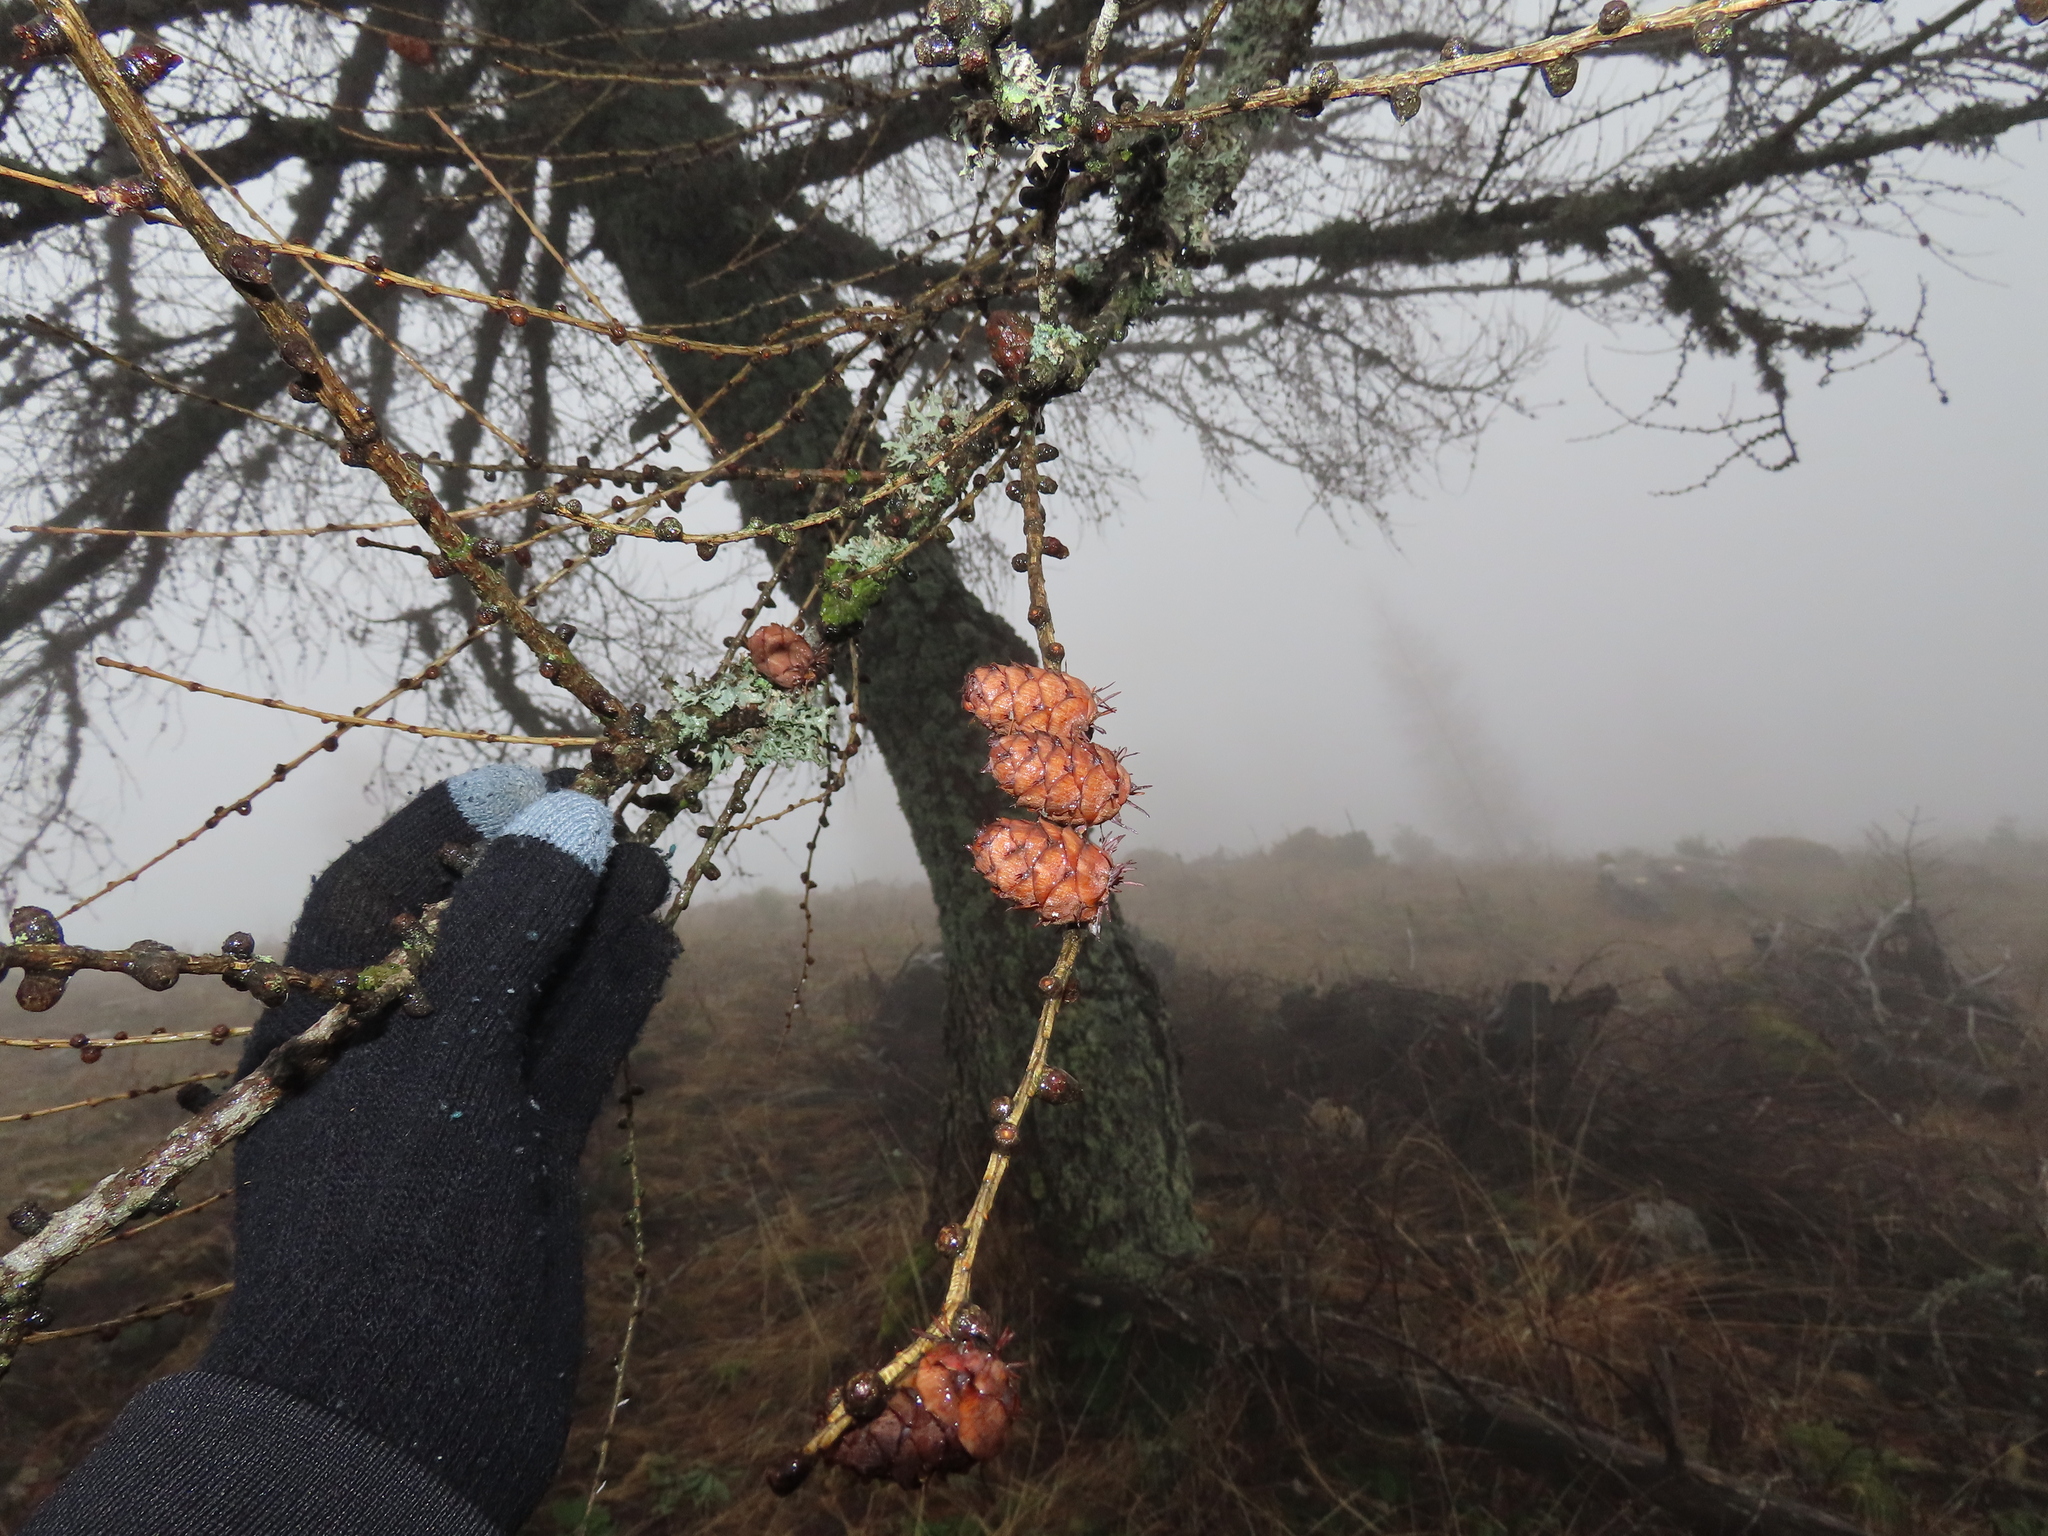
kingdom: Plantae
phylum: Tracheophyta
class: Pinopsida
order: Pinales
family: Pinaceae
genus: Larix
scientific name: Larix decidua
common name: European larch
